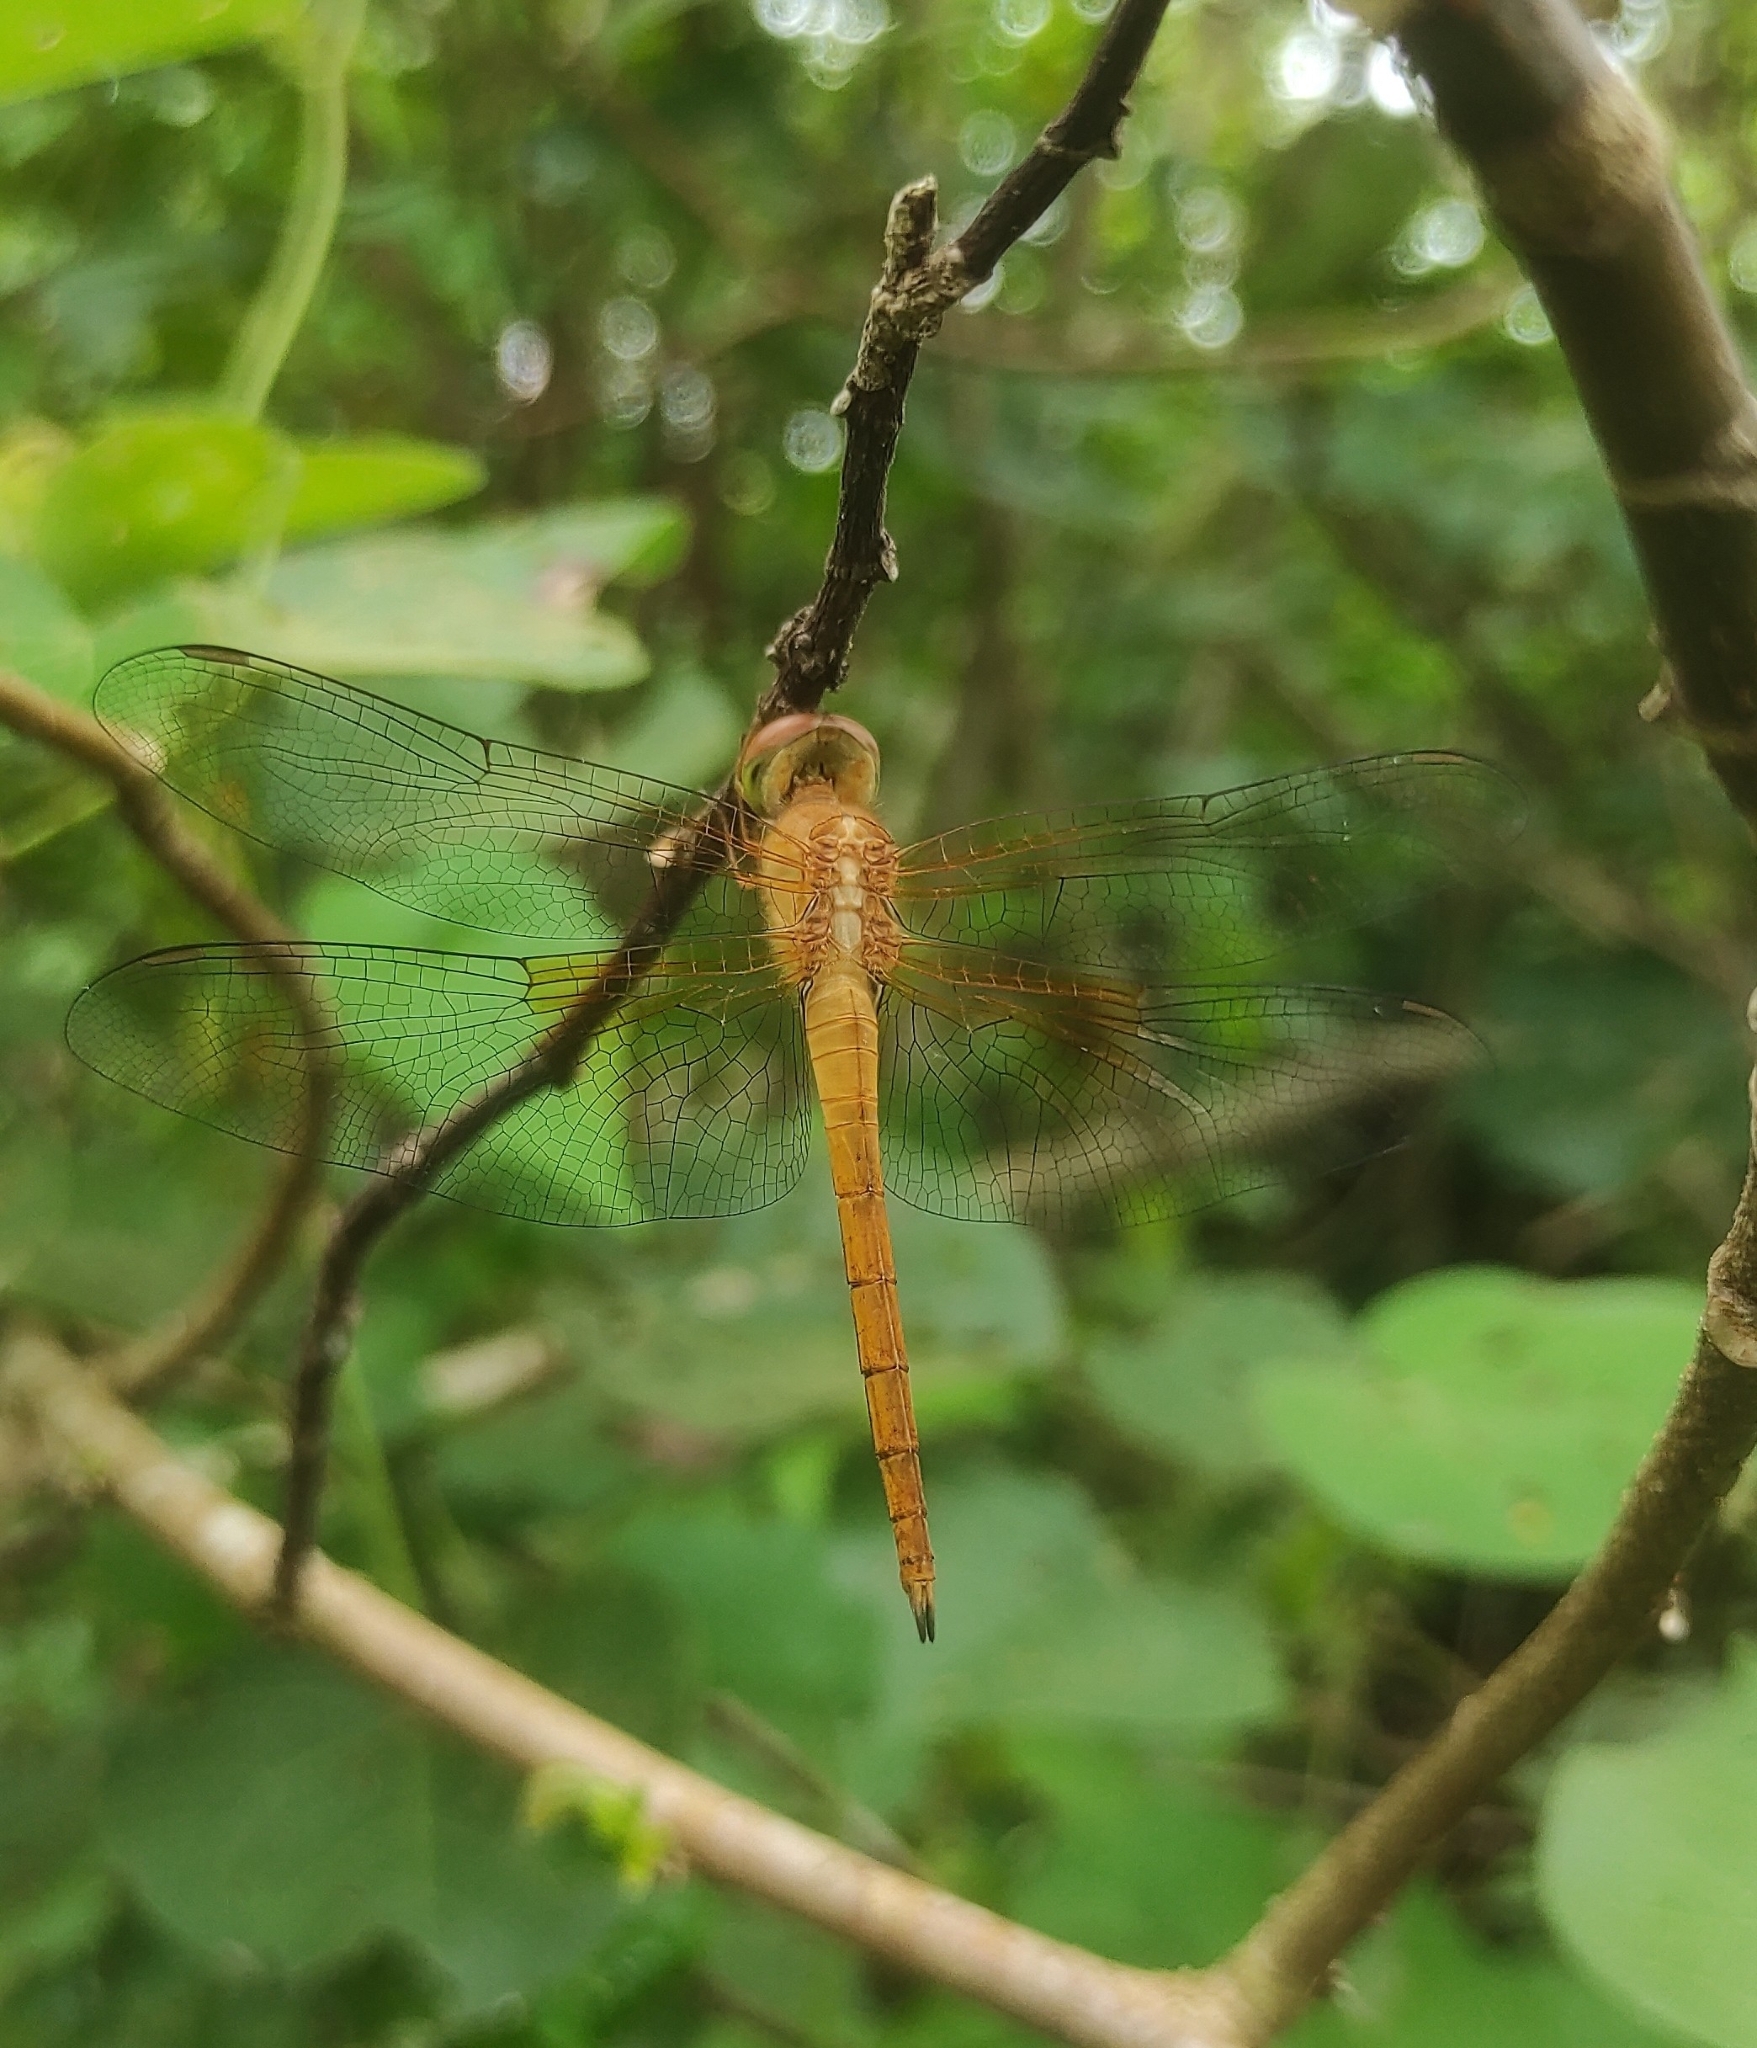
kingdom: Animalia
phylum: Arthropoda
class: Insecta
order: Odonata
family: Libellulidae
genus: Tholymis
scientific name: Tholymis tillarga
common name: Coral-tailed cloud wing
